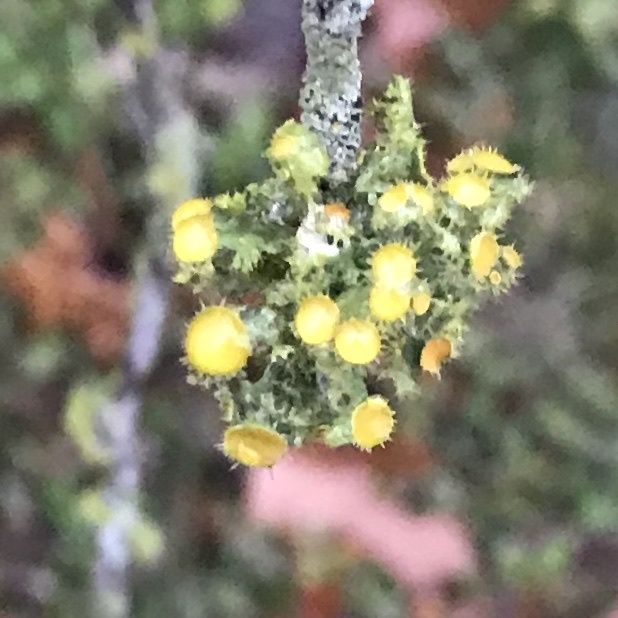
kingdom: Fungi
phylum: Ascomycota
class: Lecanoromycetes
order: Teloschistales
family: Teloschistaceae
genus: Niorma
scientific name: Niorma chrysophthalma
